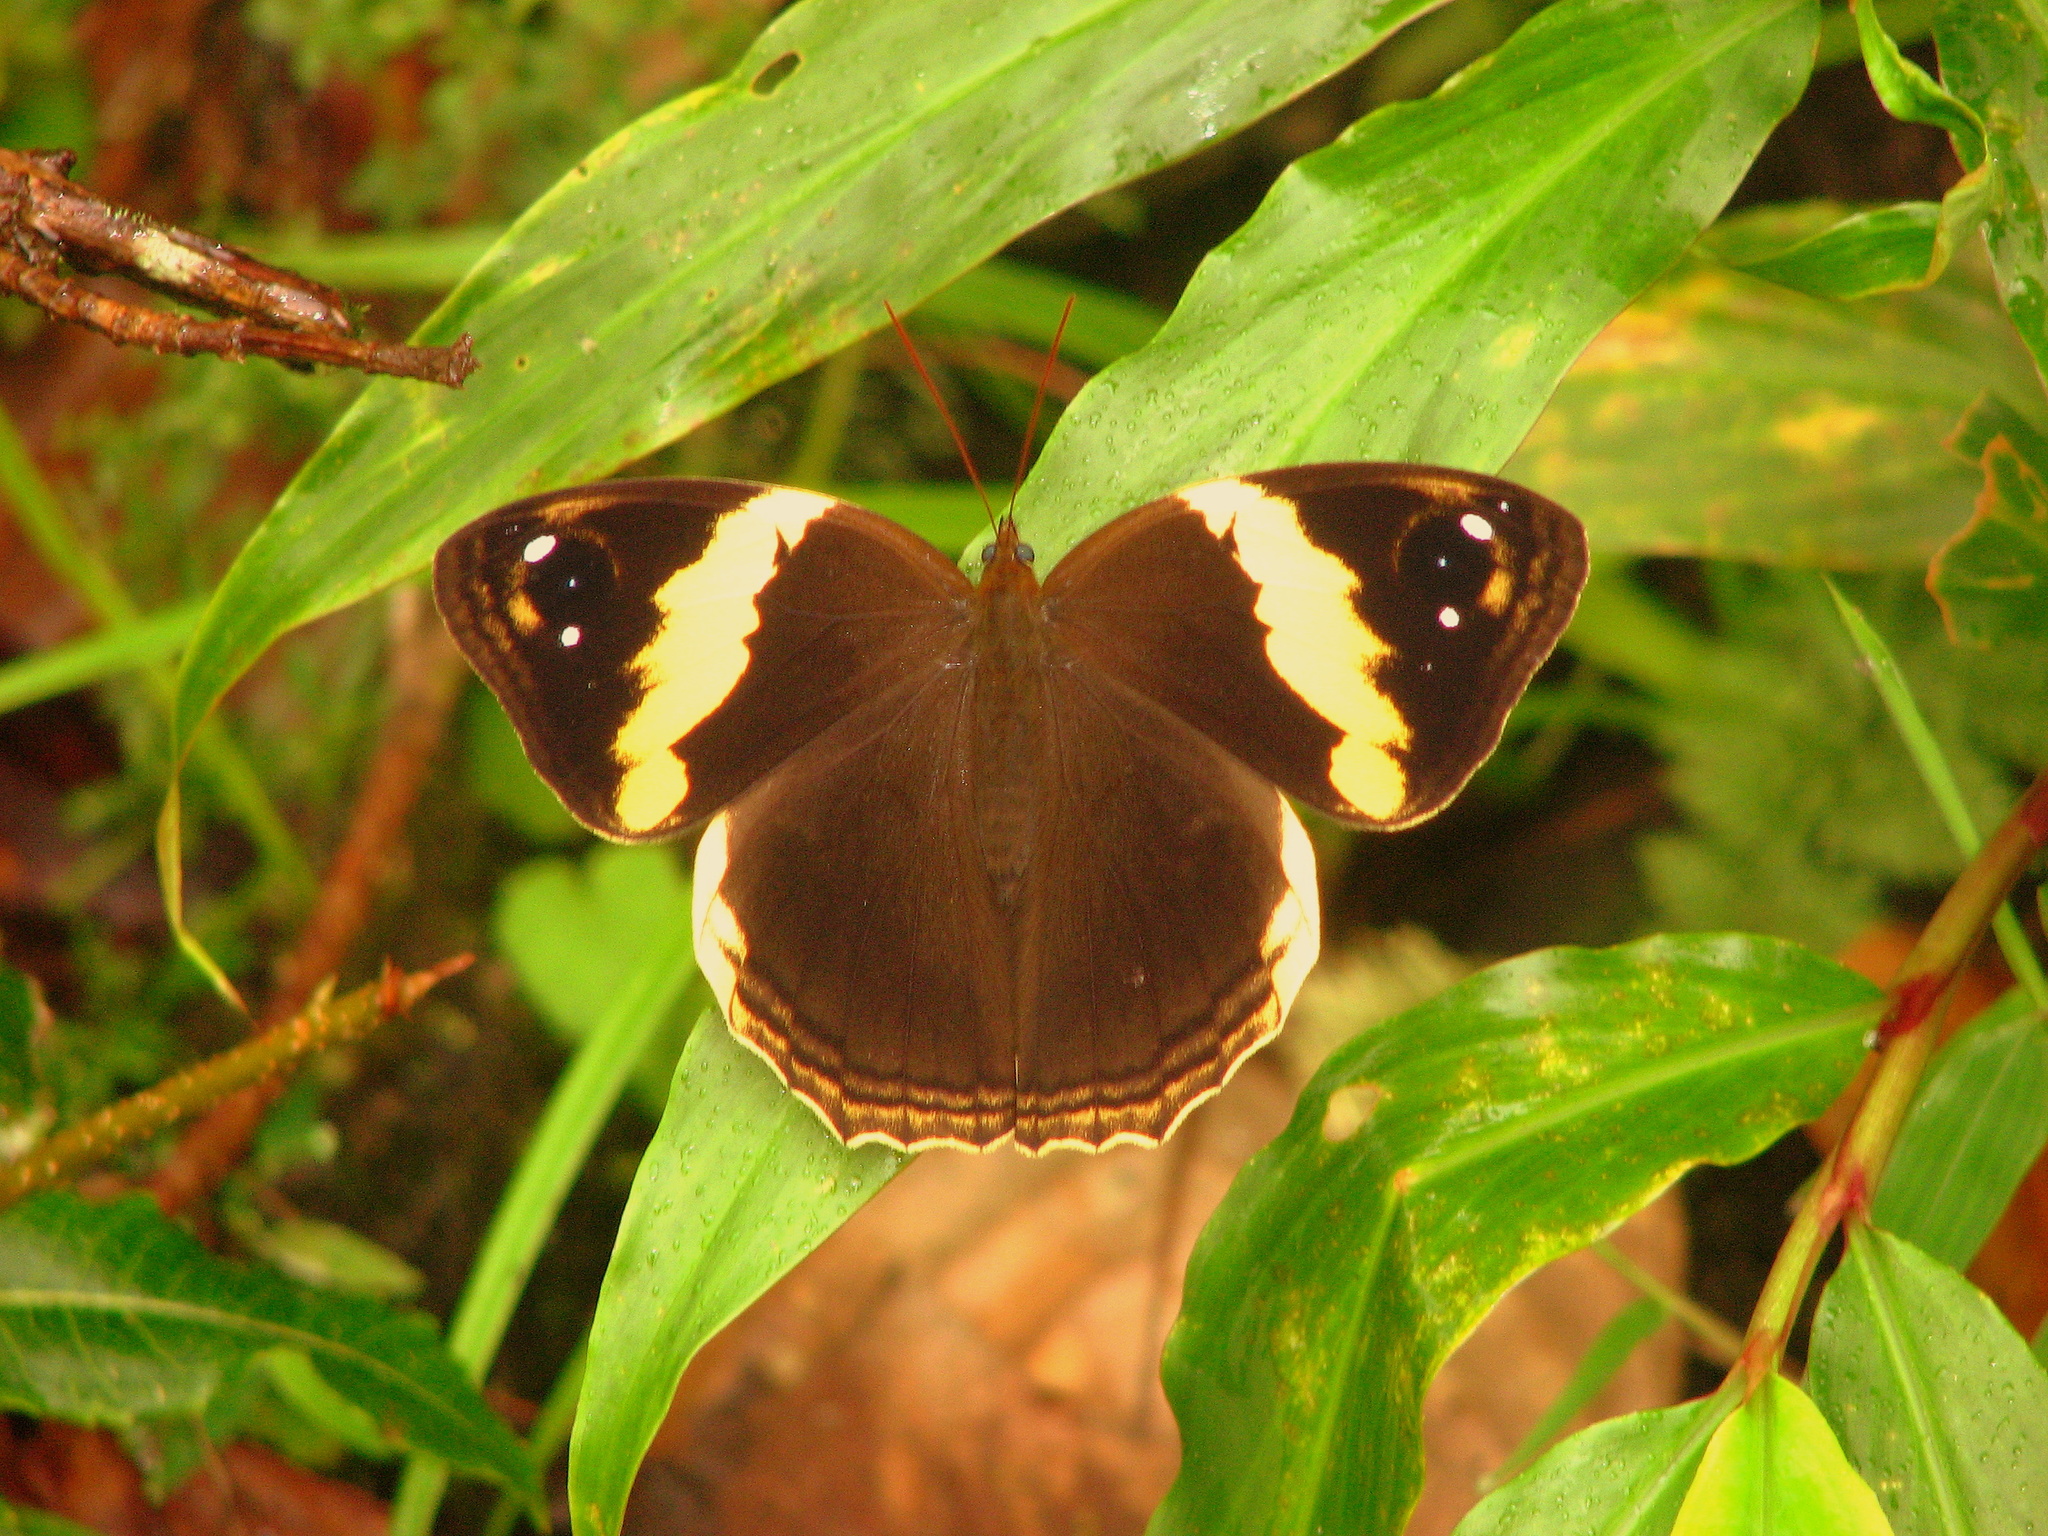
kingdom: Animalia
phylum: Arthropoda
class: Insecta
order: Lepidoptera
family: Nymphalidae
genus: Neorina
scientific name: Neorina hilda
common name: Yellow owl
